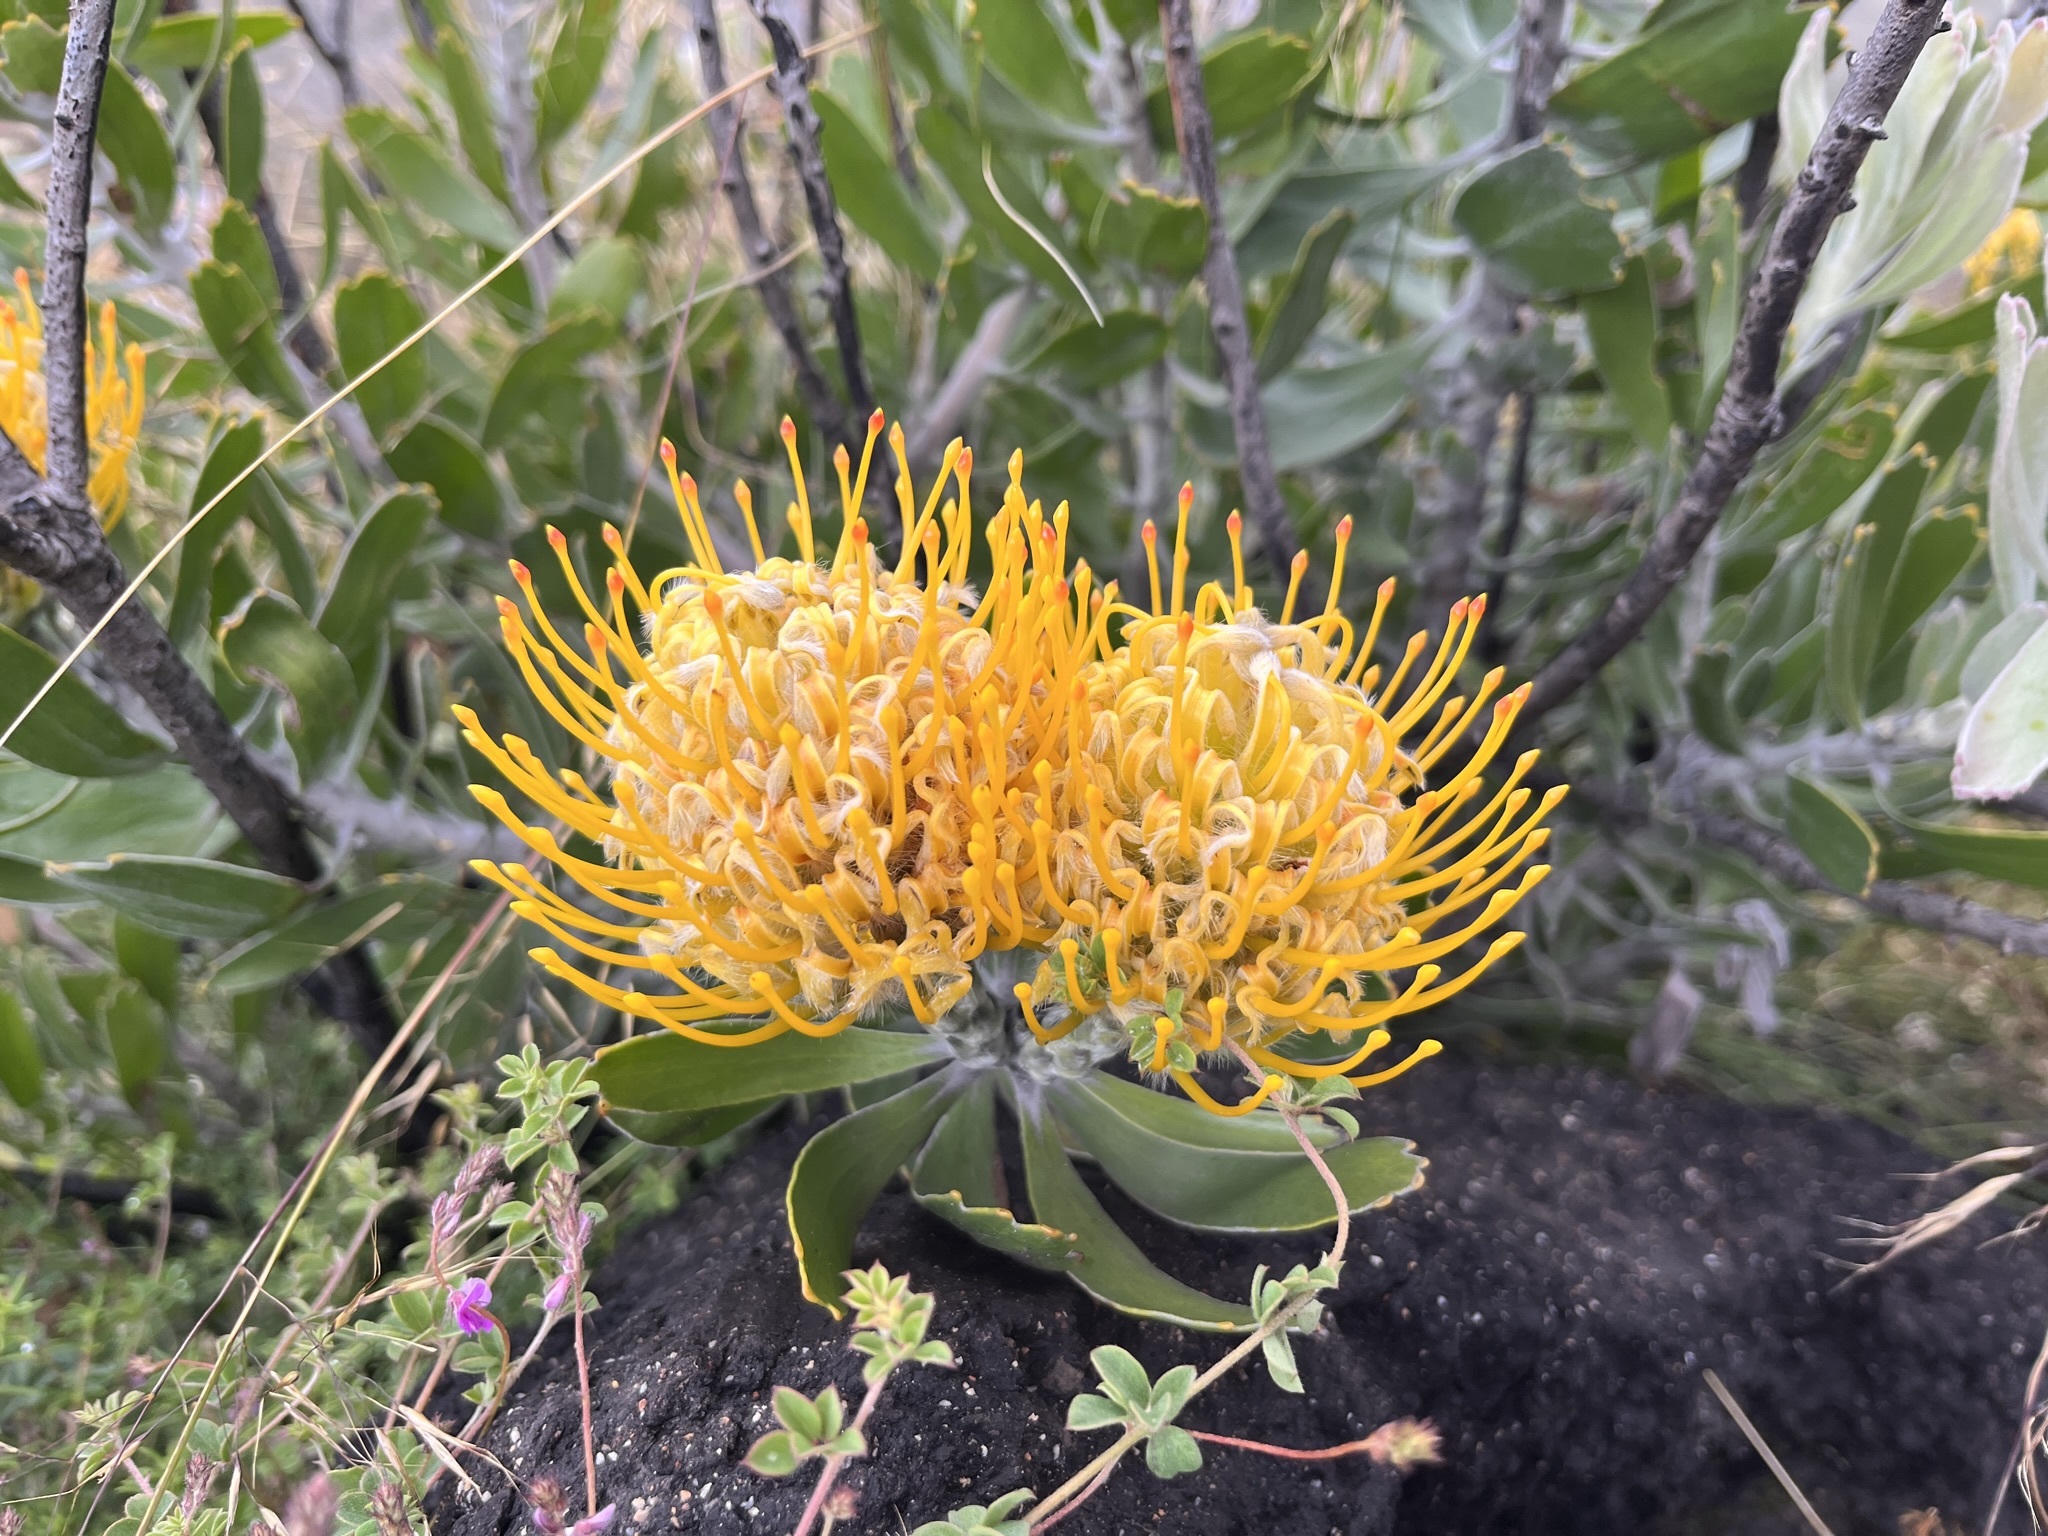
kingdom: Plantae
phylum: Tracheophyta
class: Magnoliopsida
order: Proteales
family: Proteaceae
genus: Leucospermum
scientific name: Leucospermum cuneiforme
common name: Common pincushion
